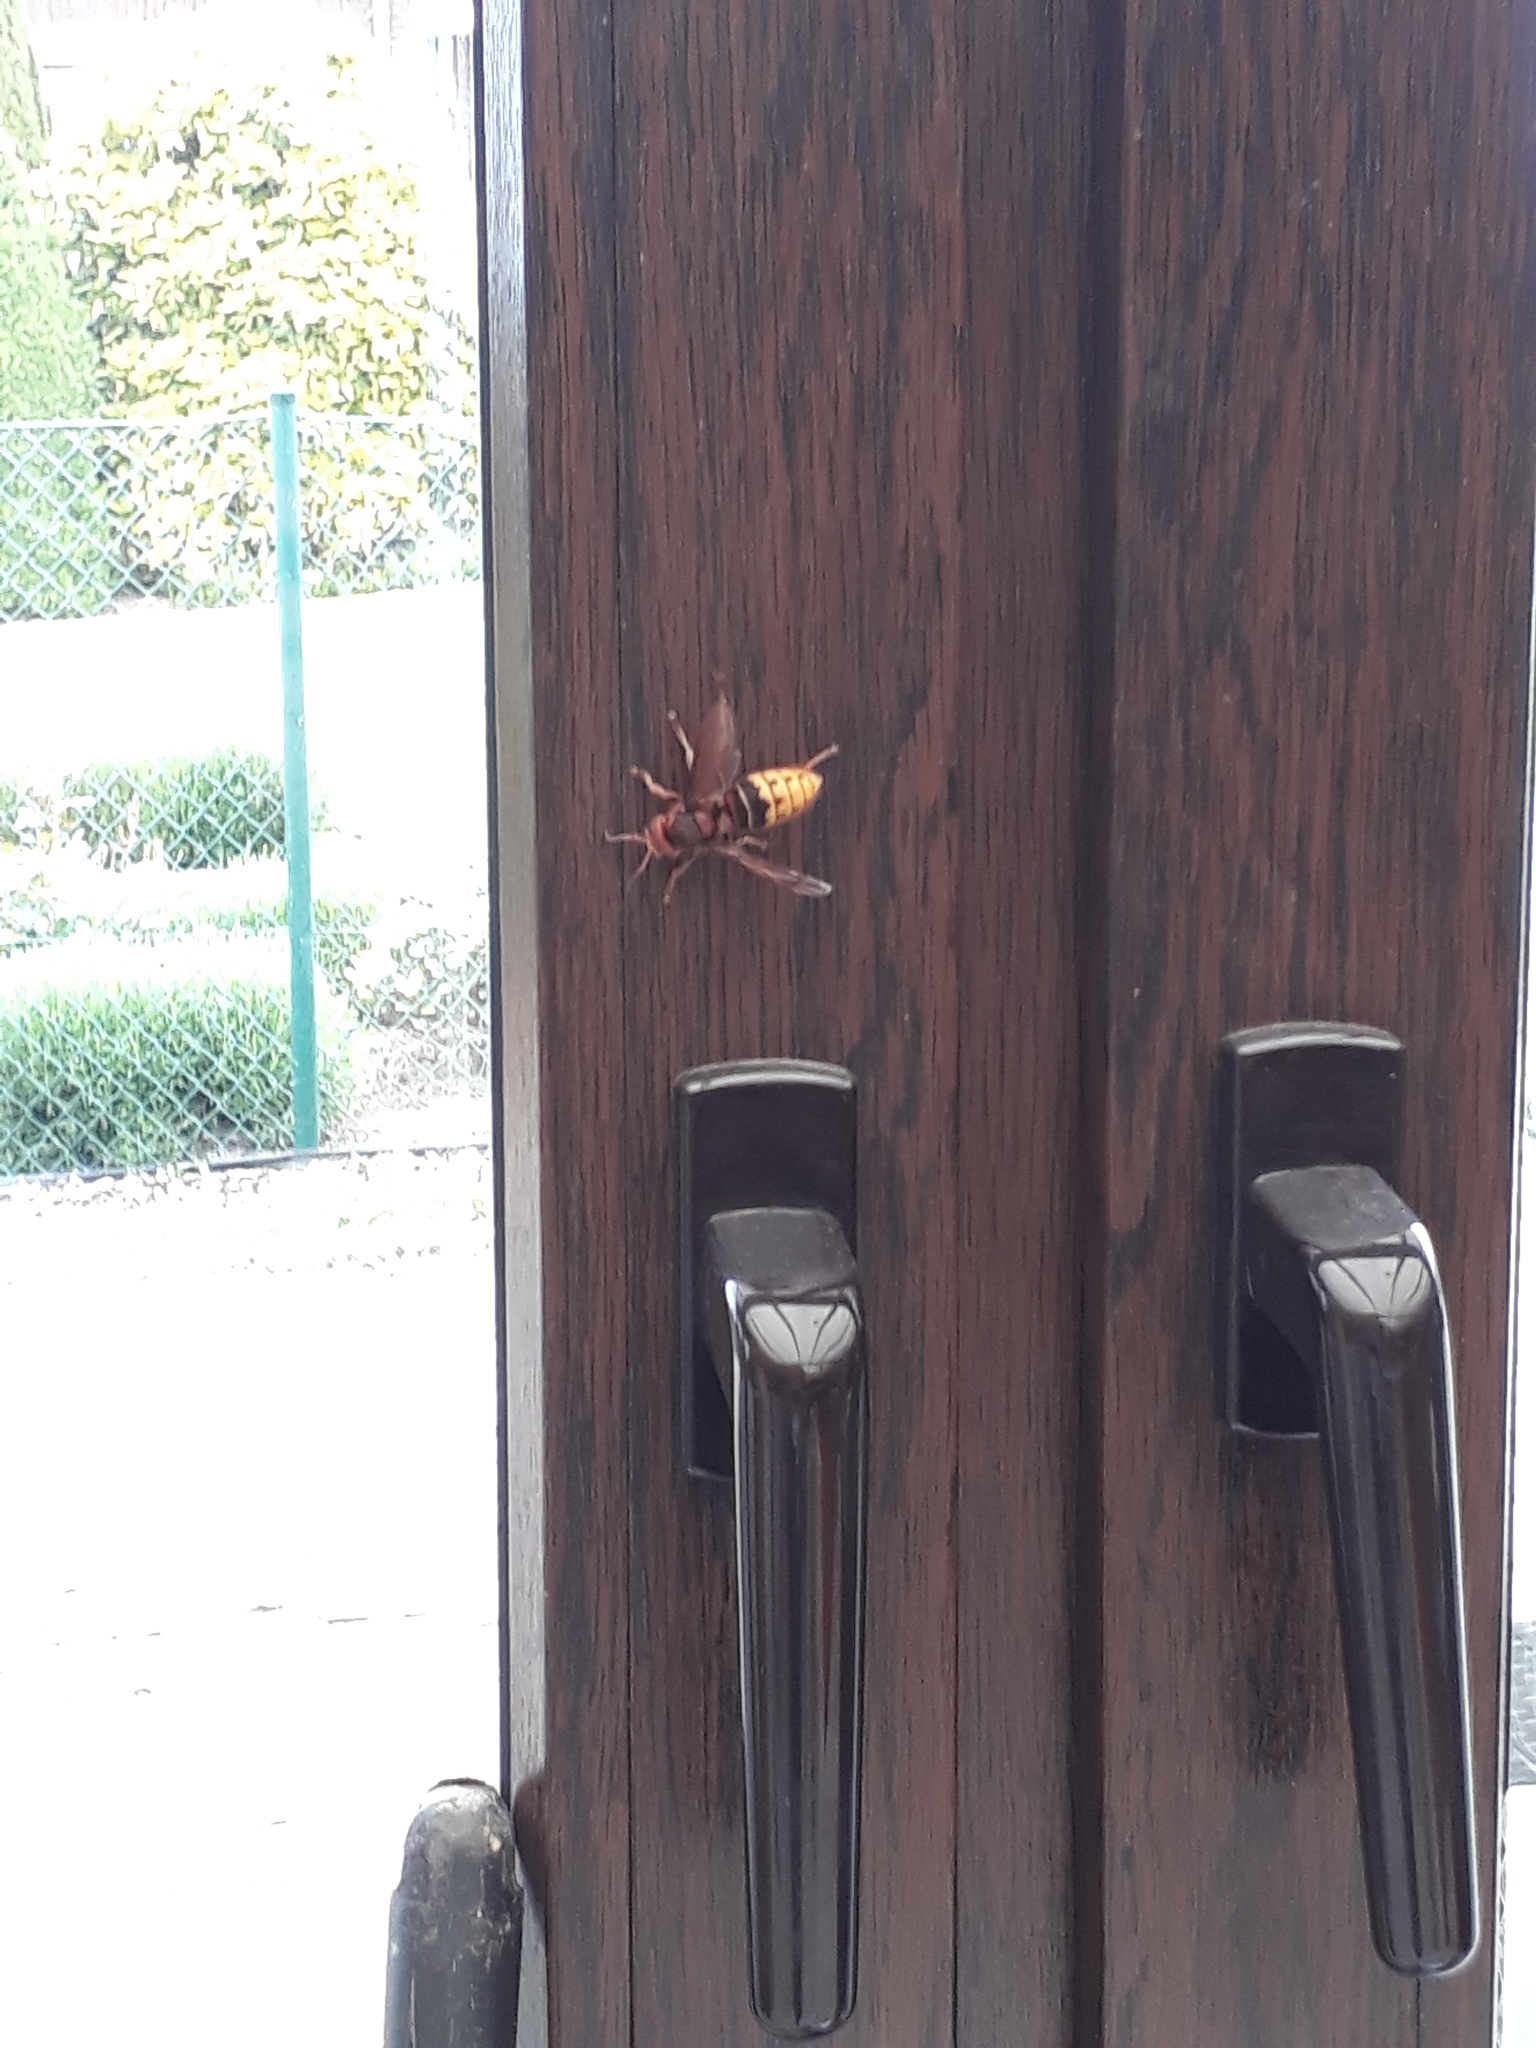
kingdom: Animalia
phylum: Arthropoda
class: Insecta
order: Hymenoptera
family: Vespidae
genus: Vespa
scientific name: Vespa crabro
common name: Hornet
